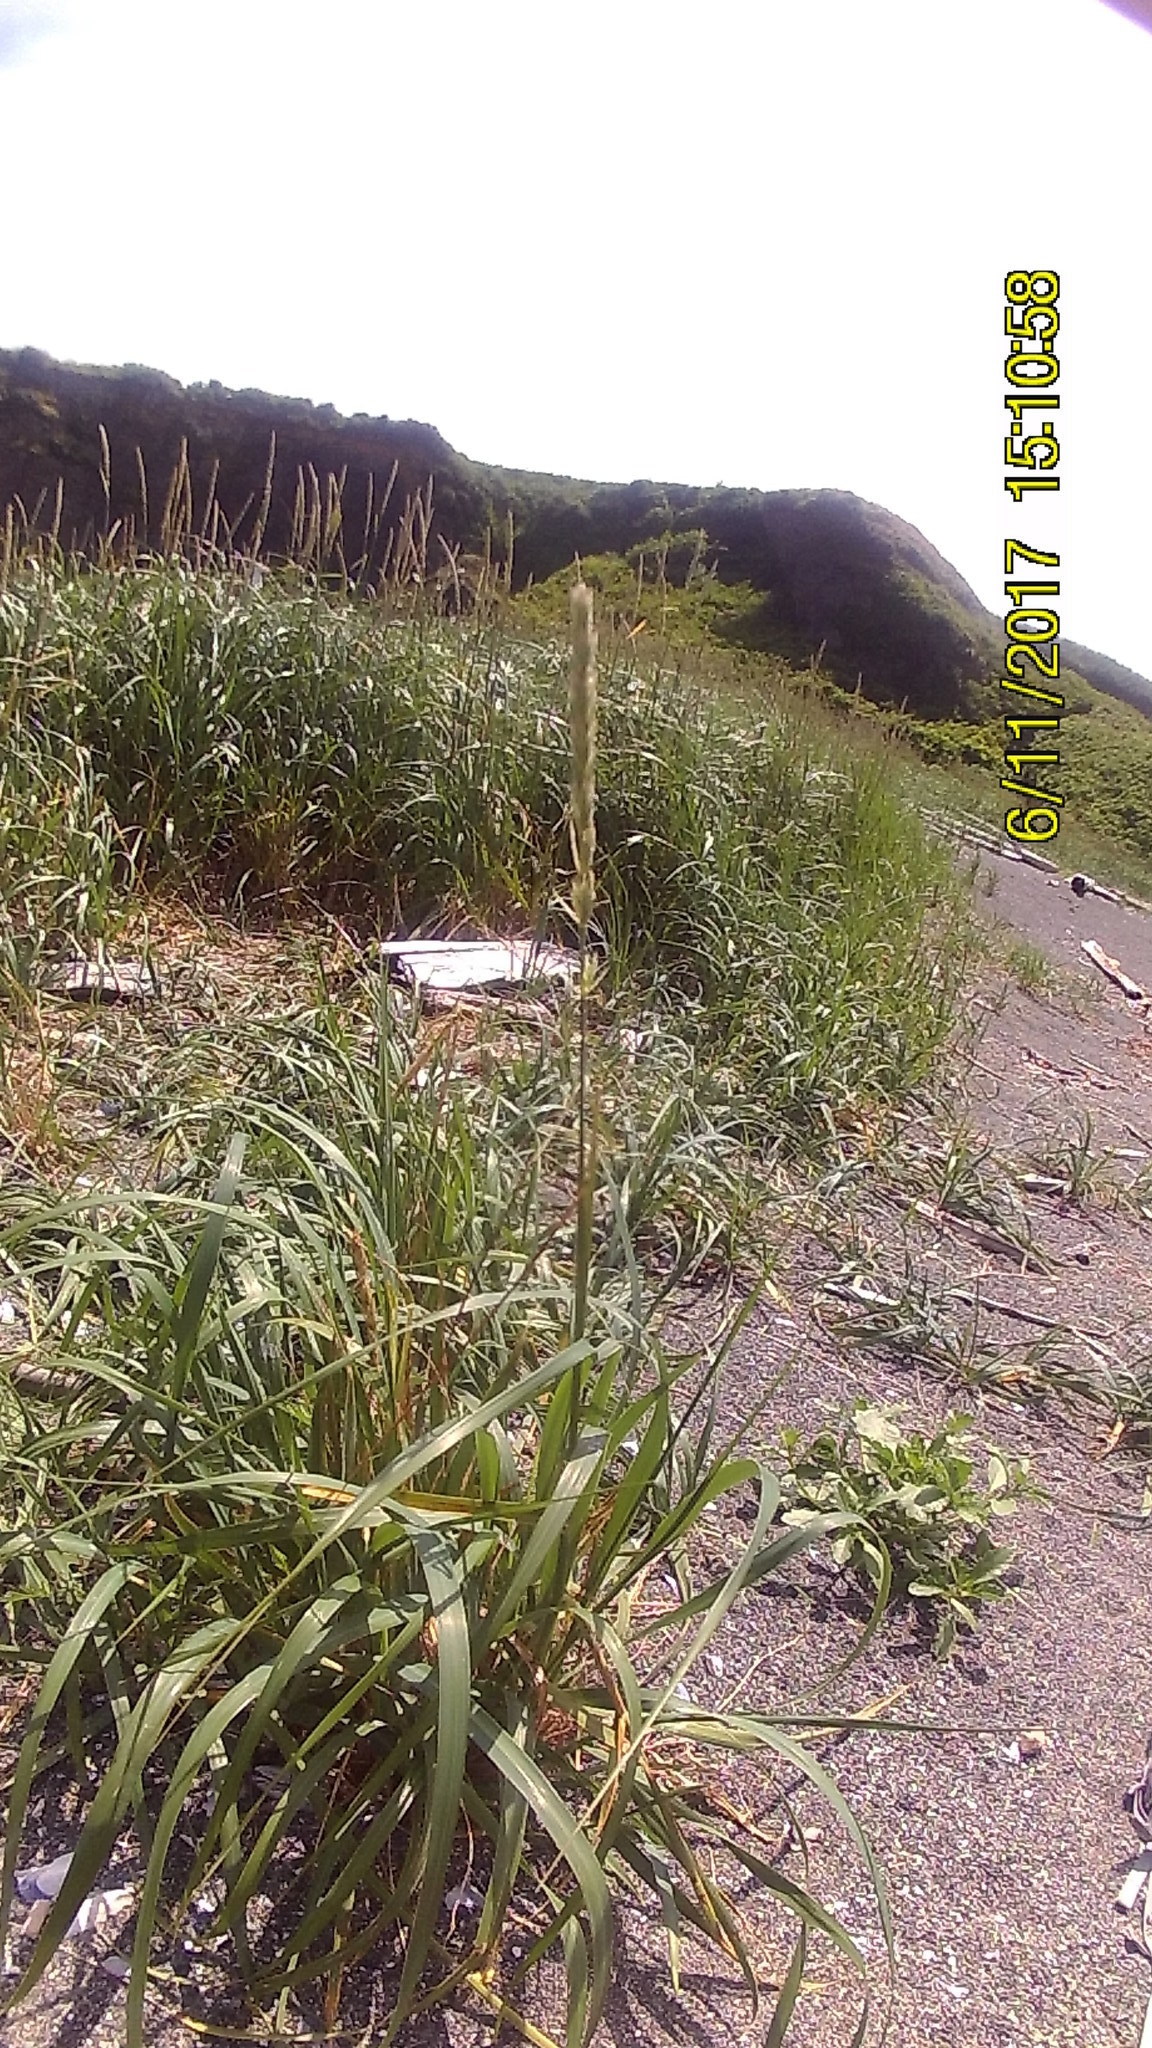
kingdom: Plantae
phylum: Tracheophyta
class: Liliopsida
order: Poales
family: Poaceae
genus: Leymus
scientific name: Leymus mollis
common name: American dune grass
